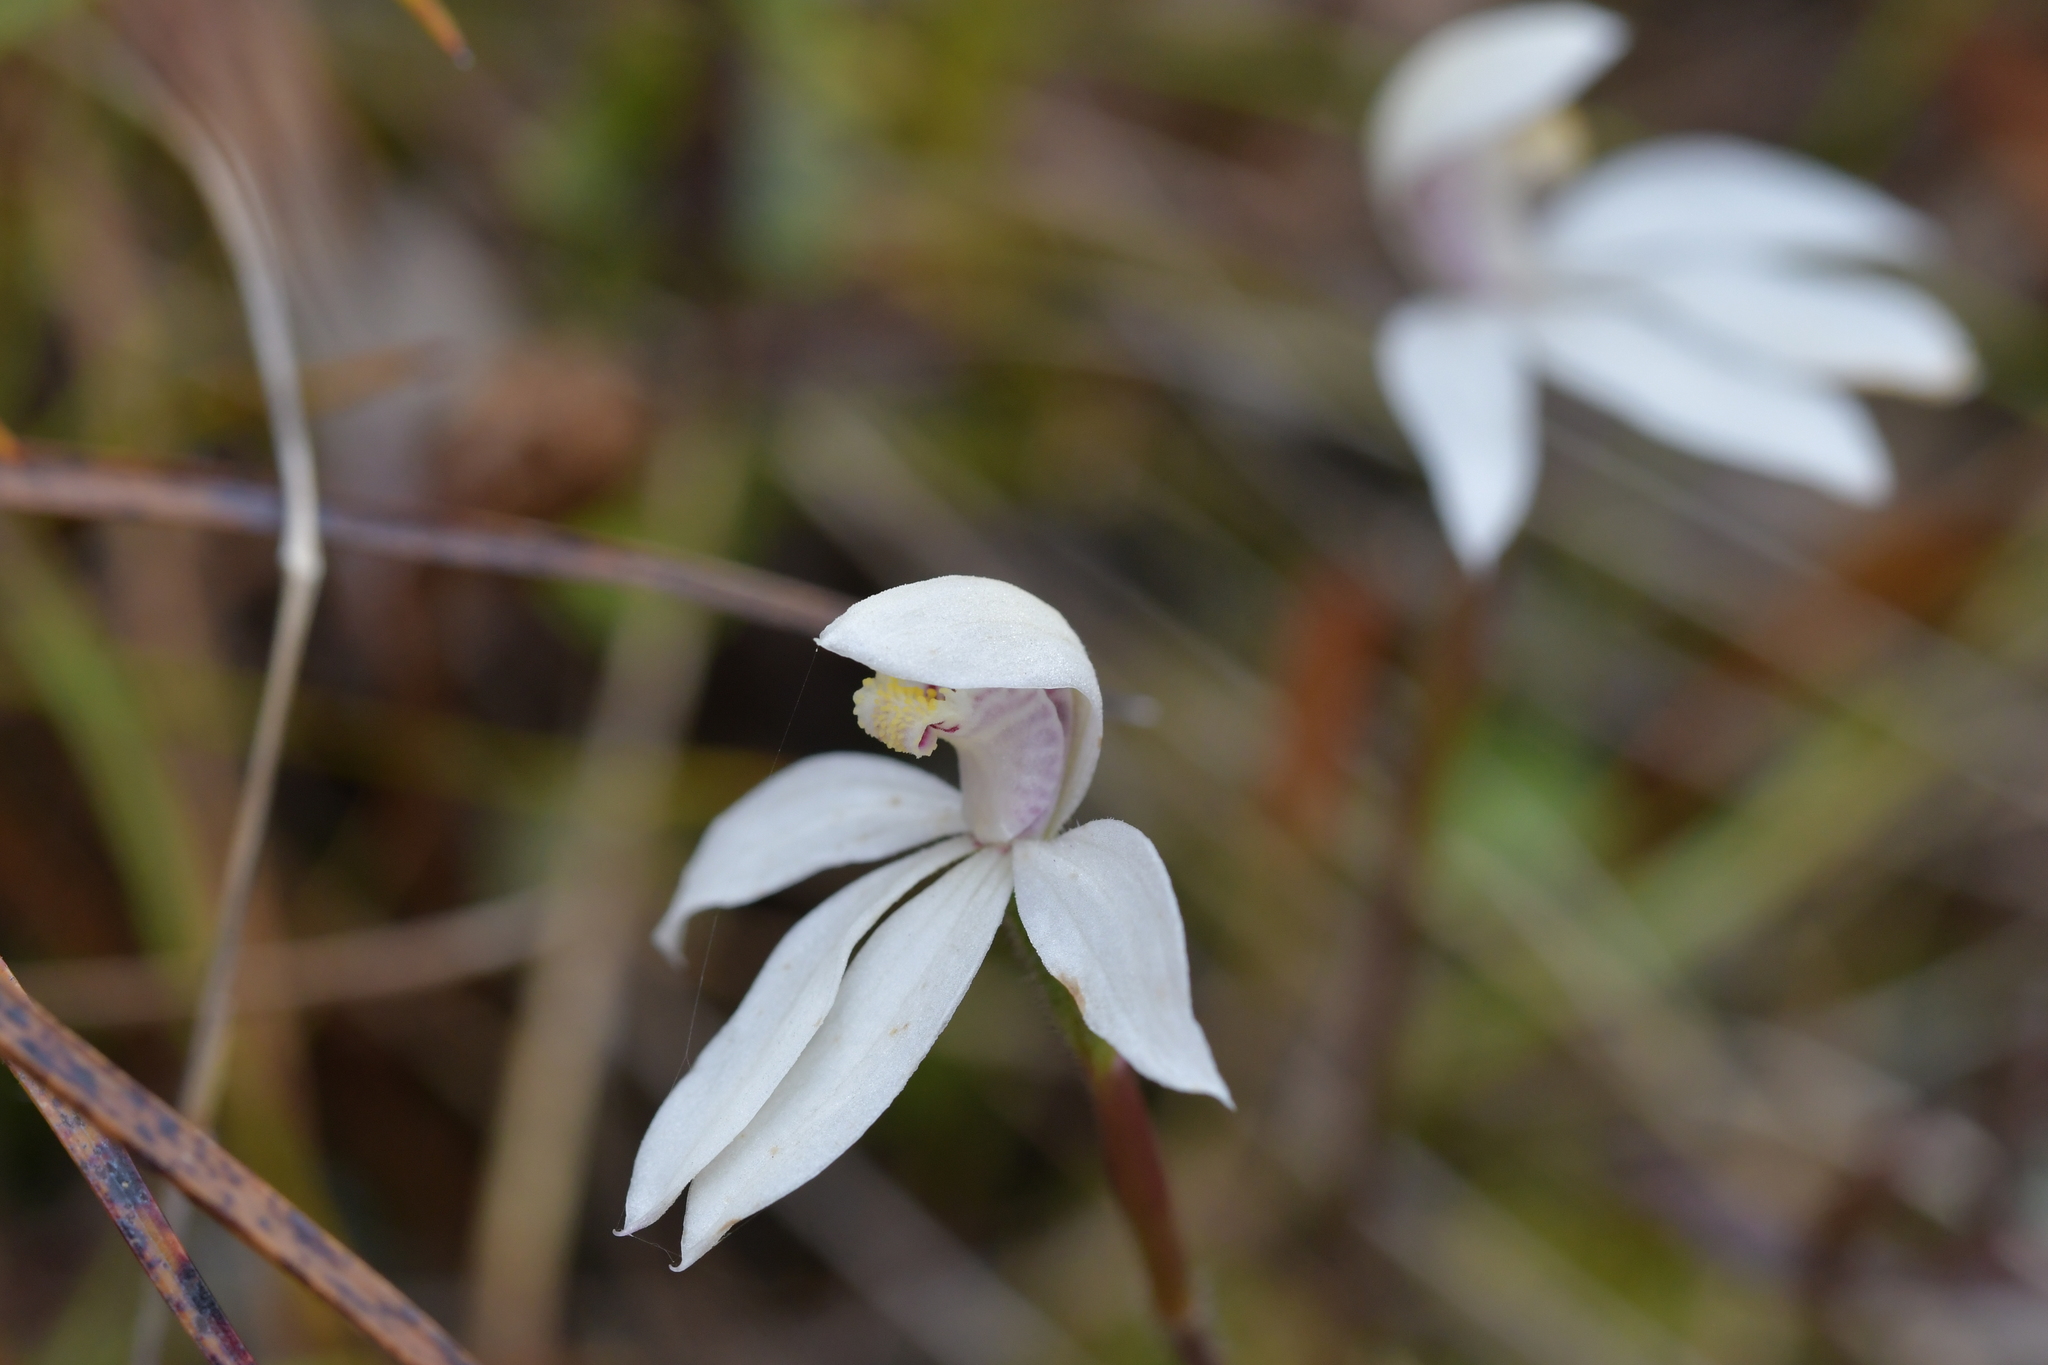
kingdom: Plantae
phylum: Tracheophyta
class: Liliopsida
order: Asparagales
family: Orchidaceae
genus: Caladenia
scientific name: Caladenia lyallii
